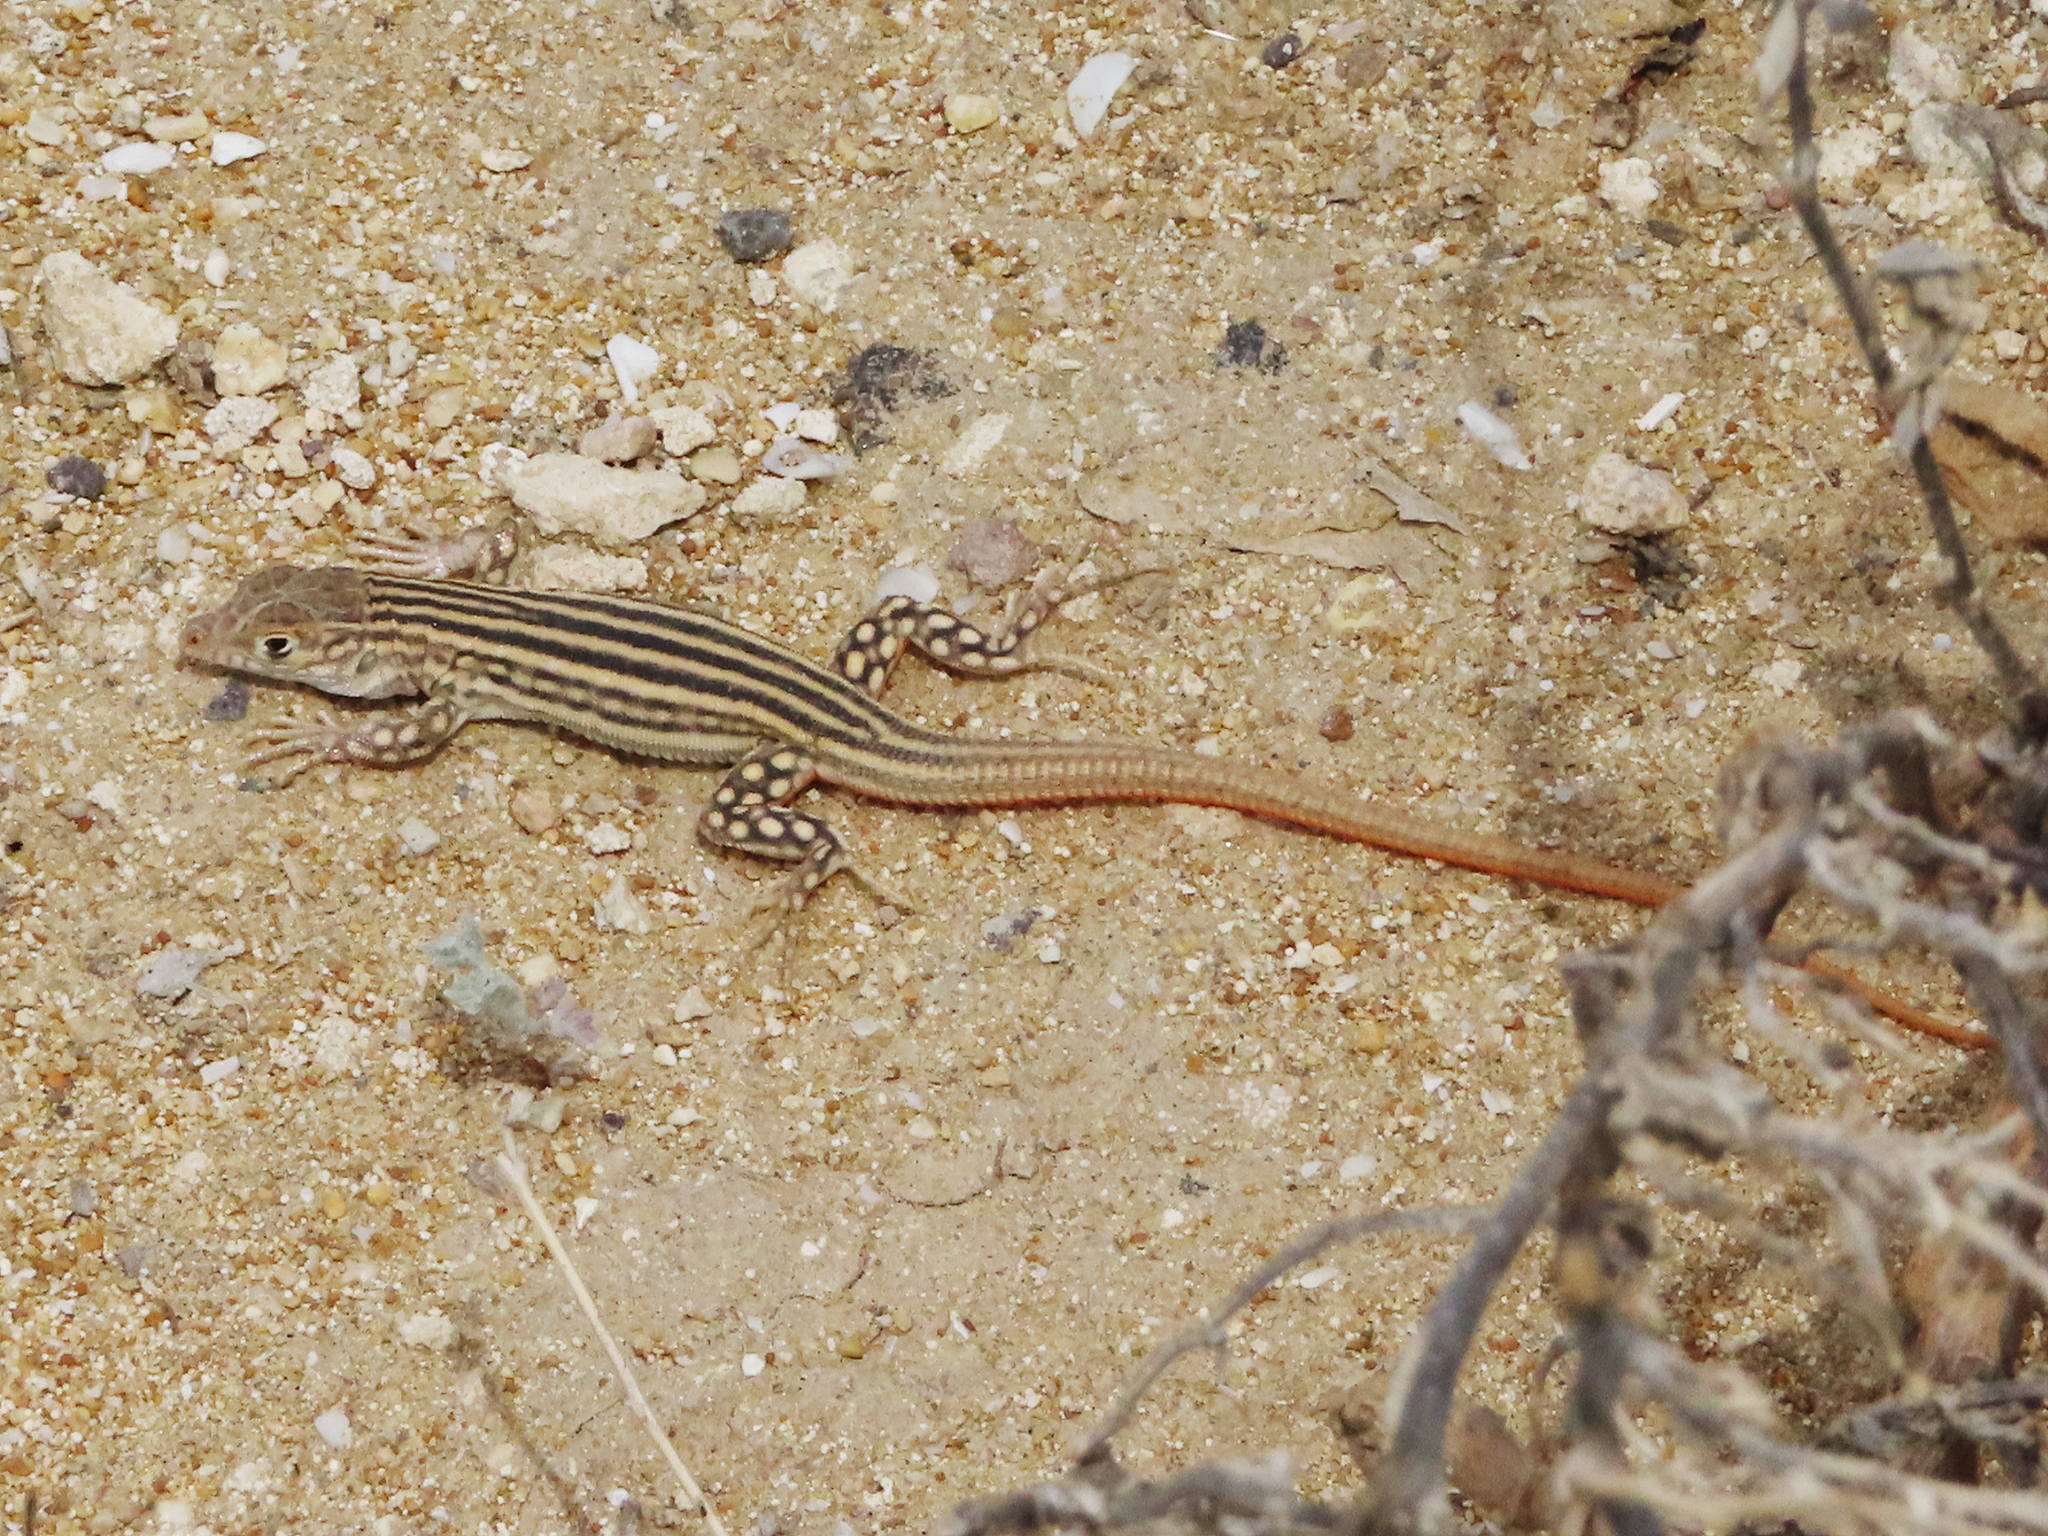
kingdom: Animalia
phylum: Chordata
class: Squamata
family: Lacertidae
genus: Eremias
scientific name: Eremias velox
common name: Central asian racerunner
